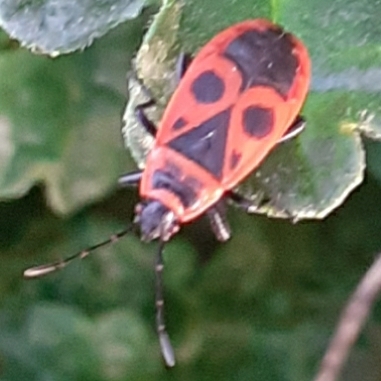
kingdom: Animalia
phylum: Arthropoda
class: Insecta
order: Hemiptera
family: Pyrrhocoridae
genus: Pyrrhocoris
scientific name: Pyrrhocoris apterus
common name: Firebug
